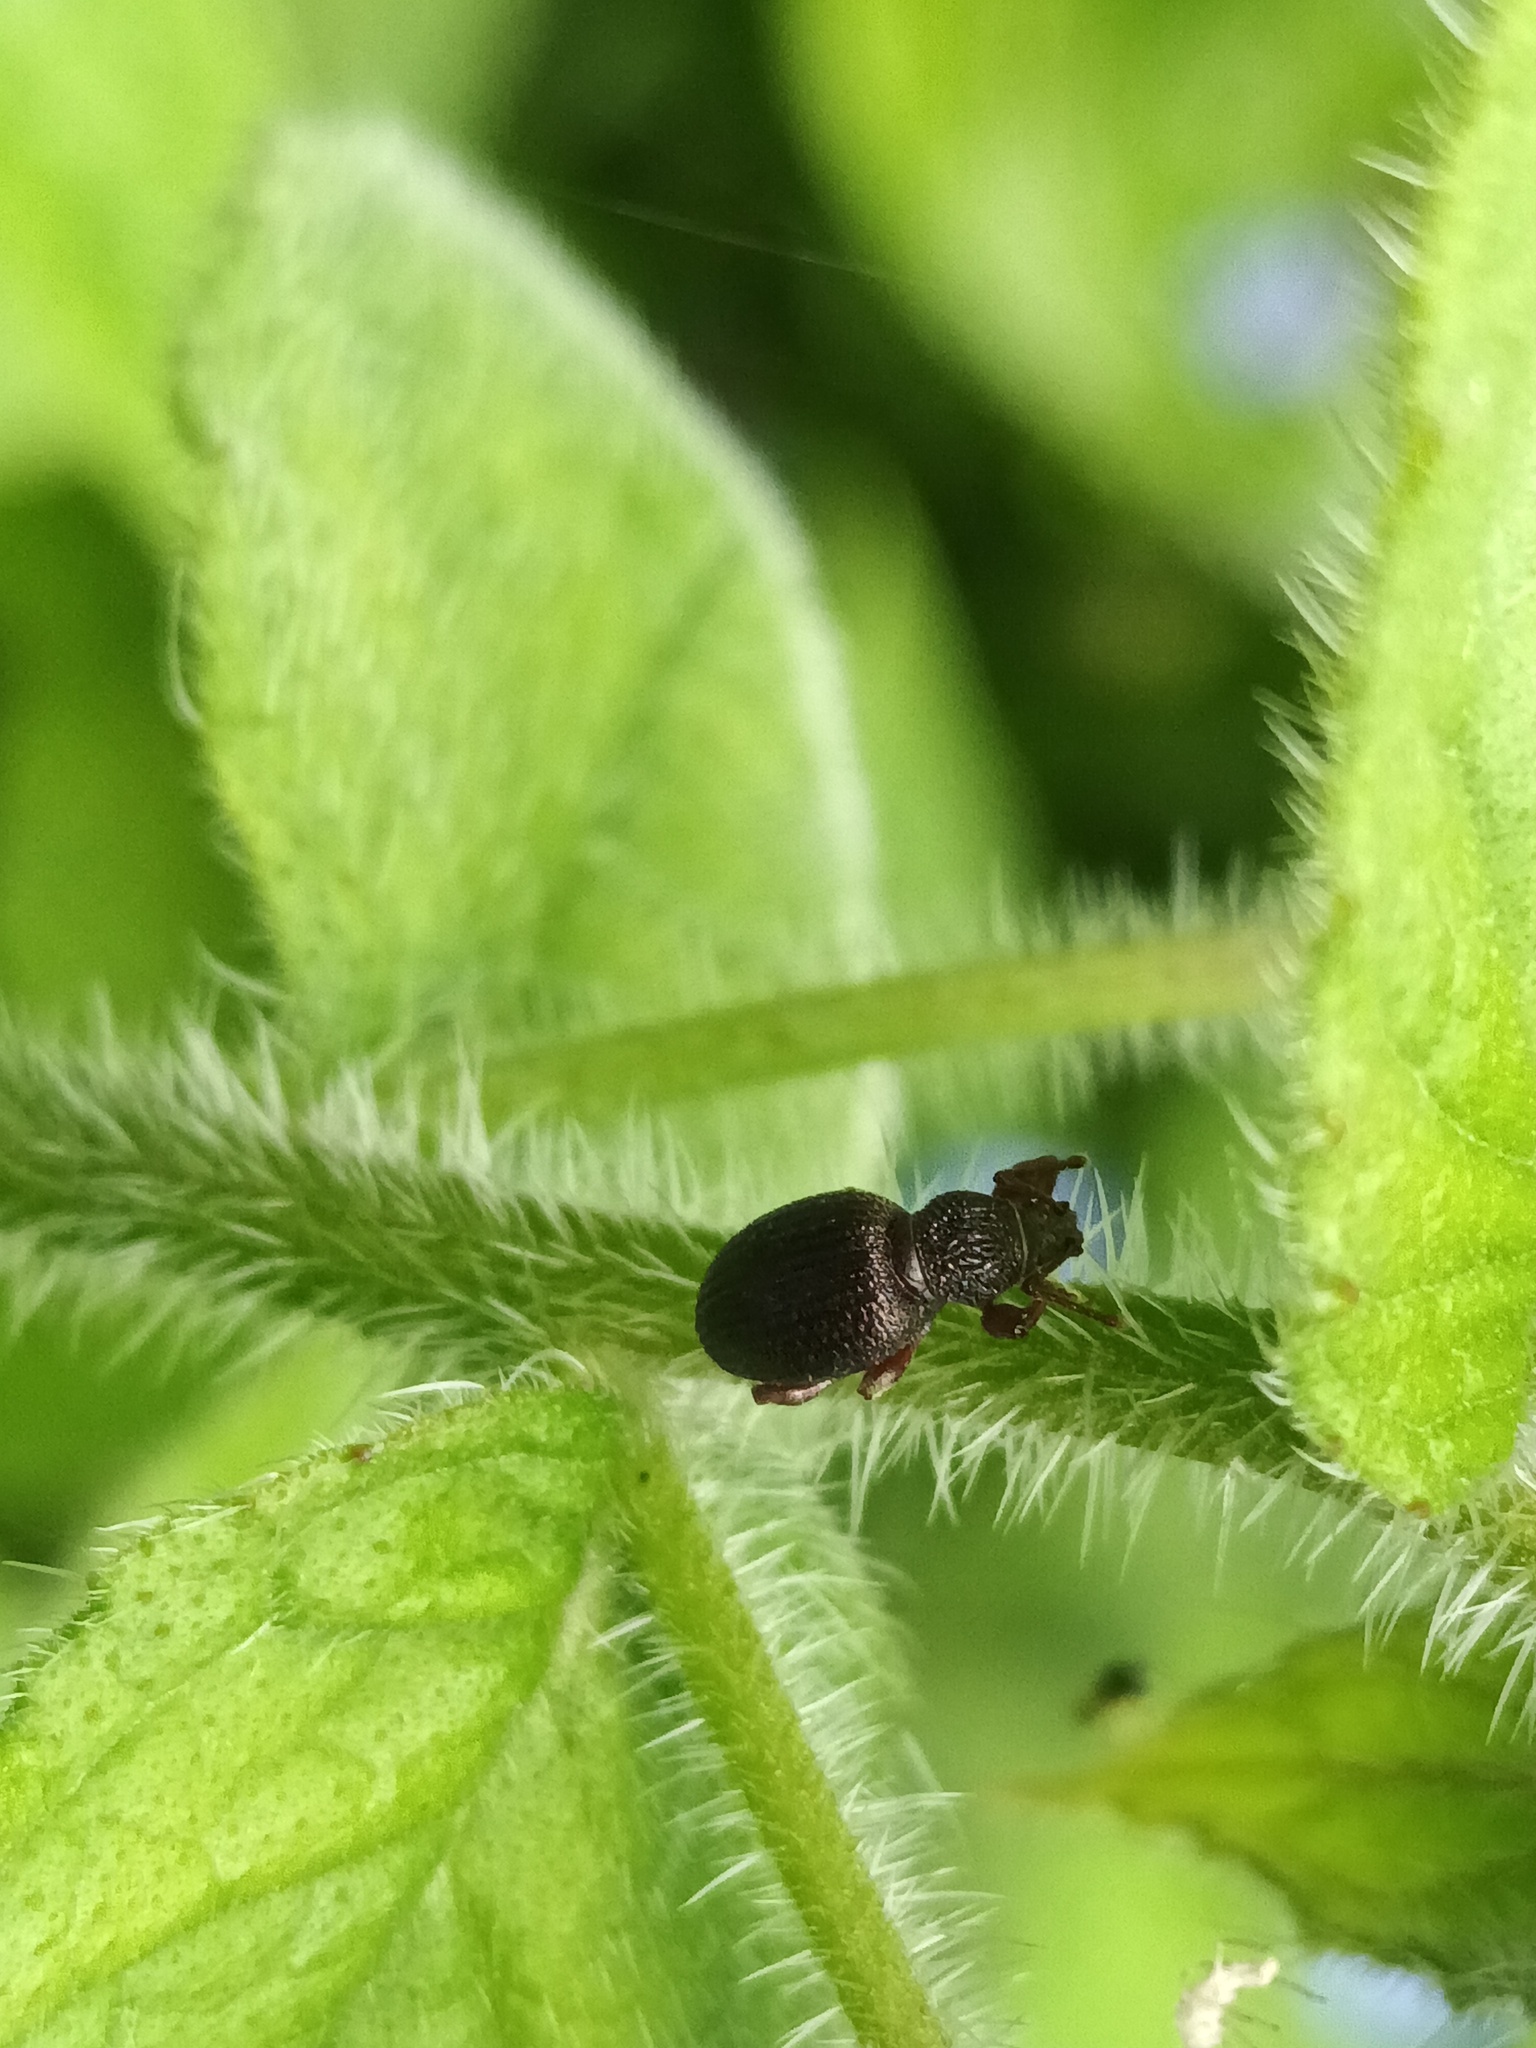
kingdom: Animalia
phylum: Arthropoda
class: Insecta
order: Coleoptera
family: Curculionidae
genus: Otiorhynchus
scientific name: Otiorhynchus ovatus
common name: Strawberry root weevil
